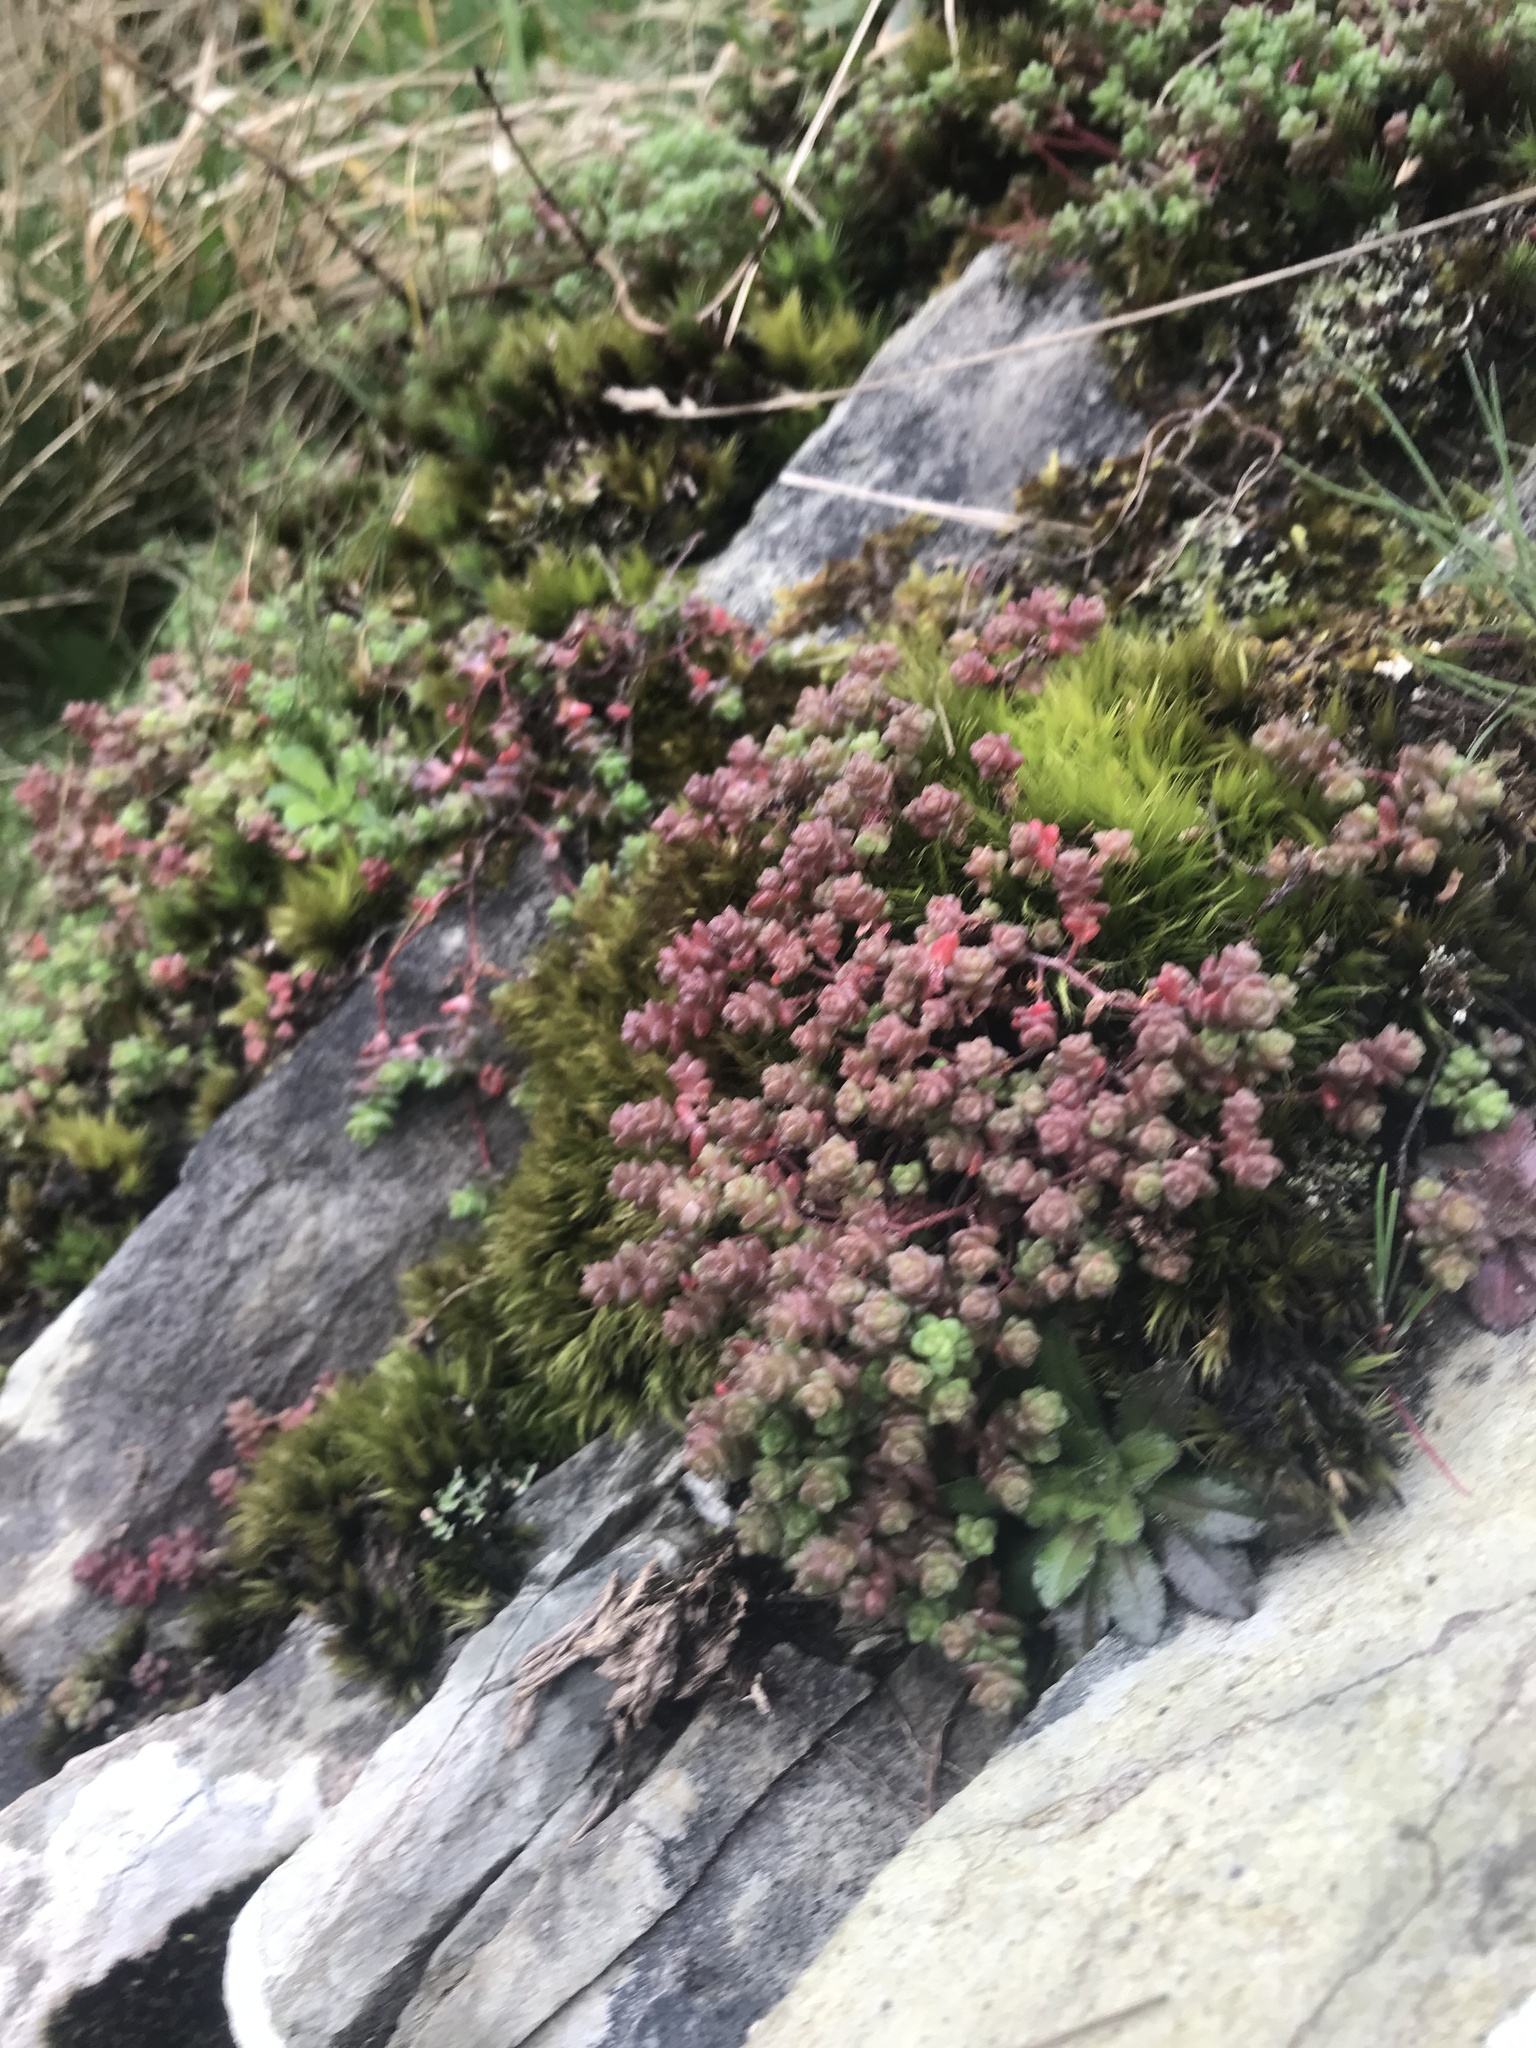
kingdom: Plantae
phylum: Tracheophyta
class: Magnoliopsida
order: Saxifragales
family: Crassulaceae
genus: Sedum
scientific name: Sedum anglicum
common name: English stonecrop
